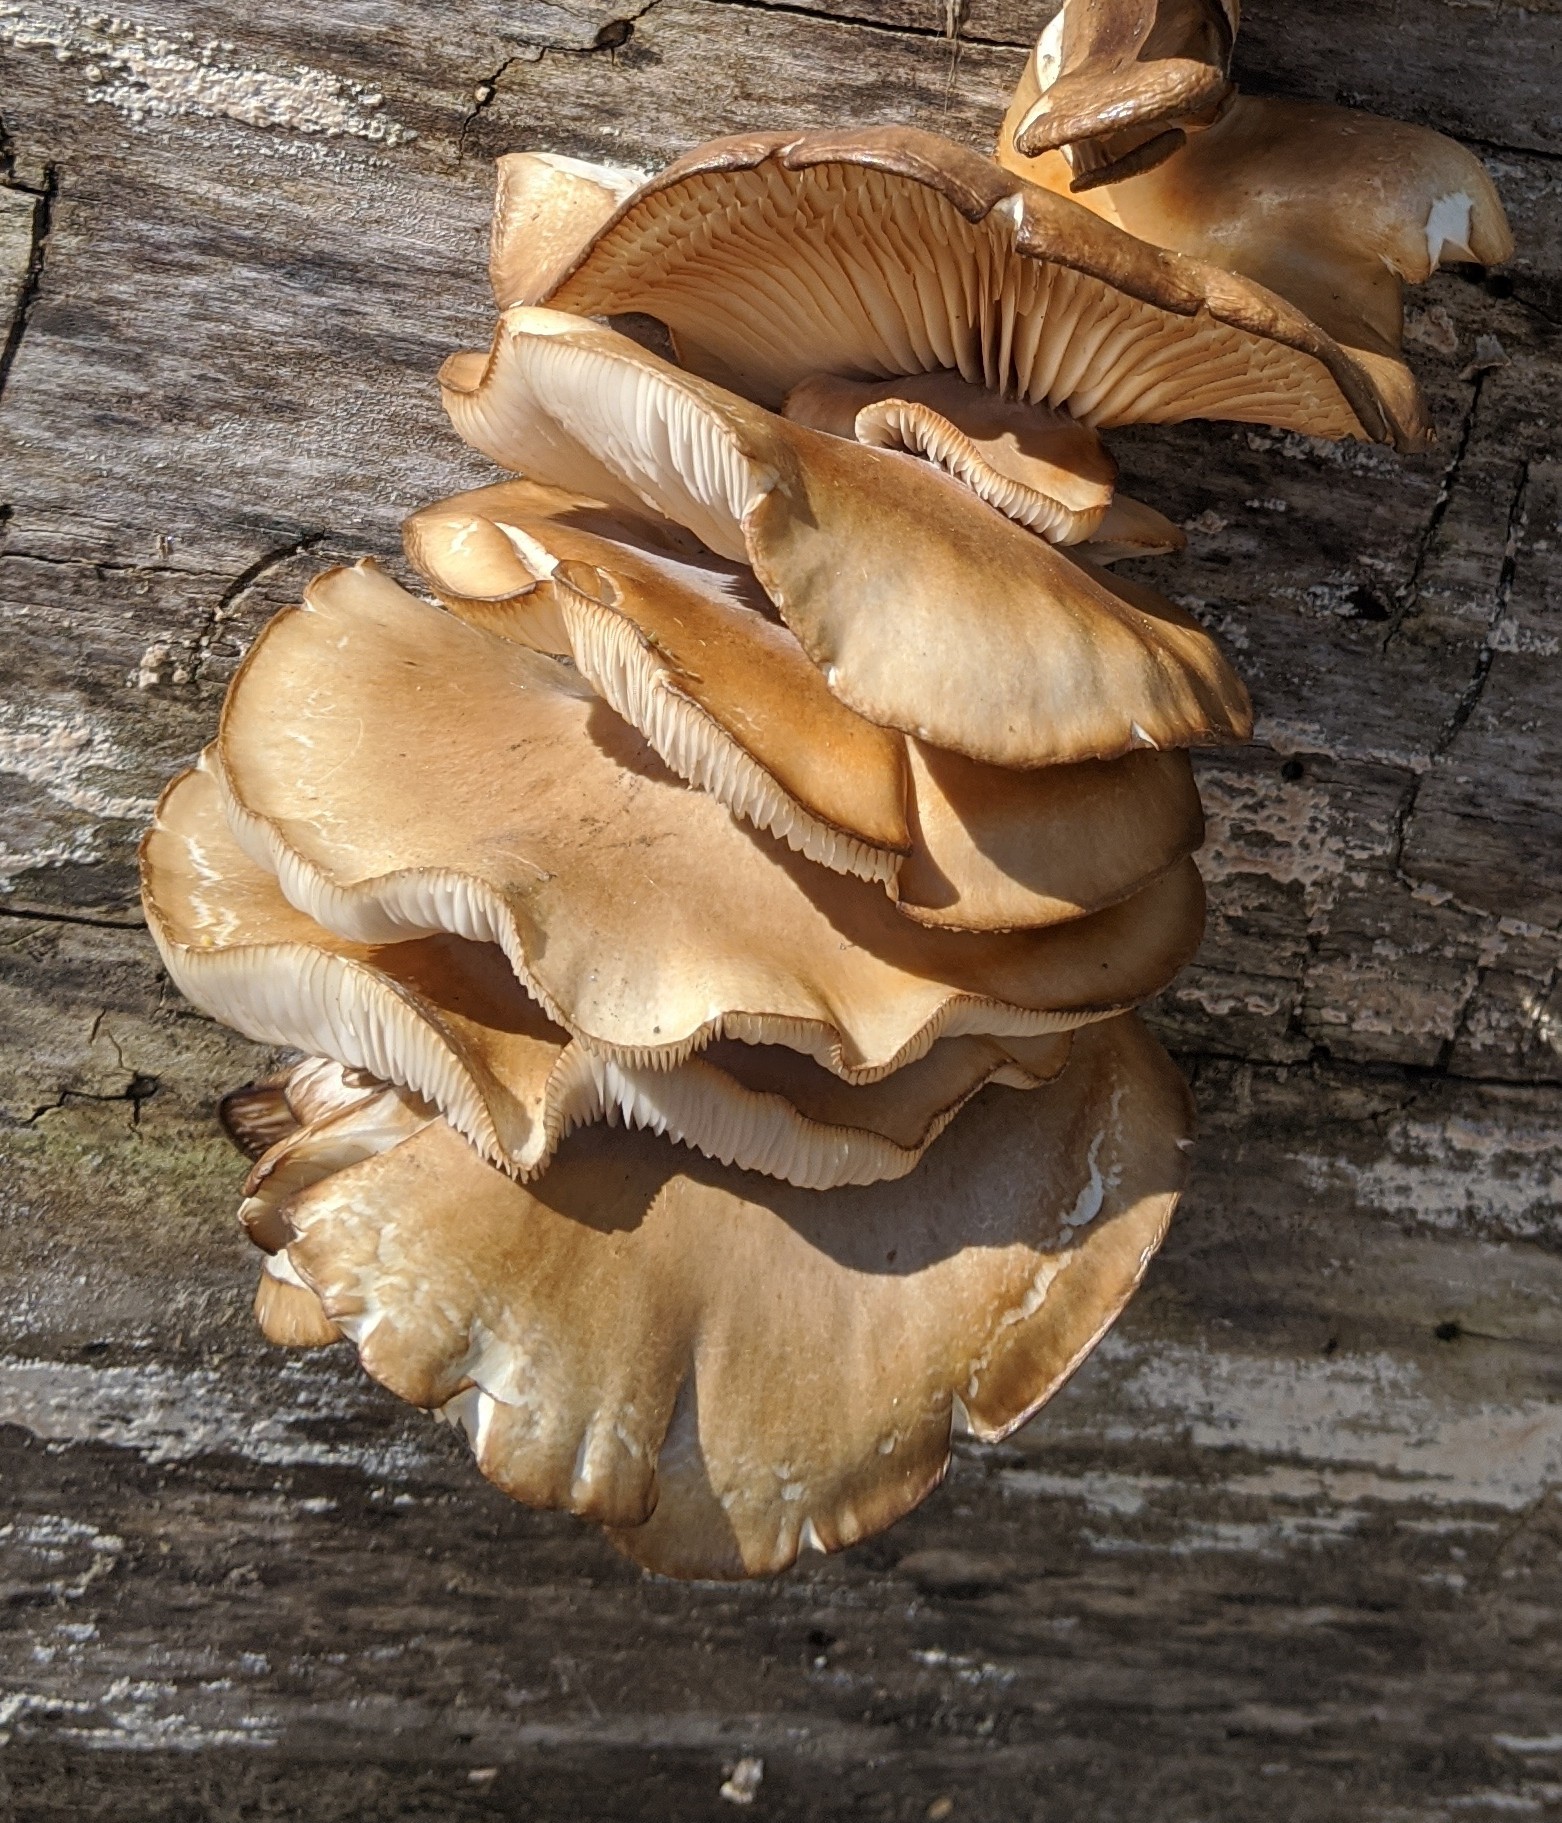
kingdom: Fungi
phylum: Basidiomycota
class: Agaricomycetes
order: Agaricales
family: Pleurotaceae
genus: Pleurotus
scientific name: Pleurotus ostreatus
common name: Oyster mushroom
